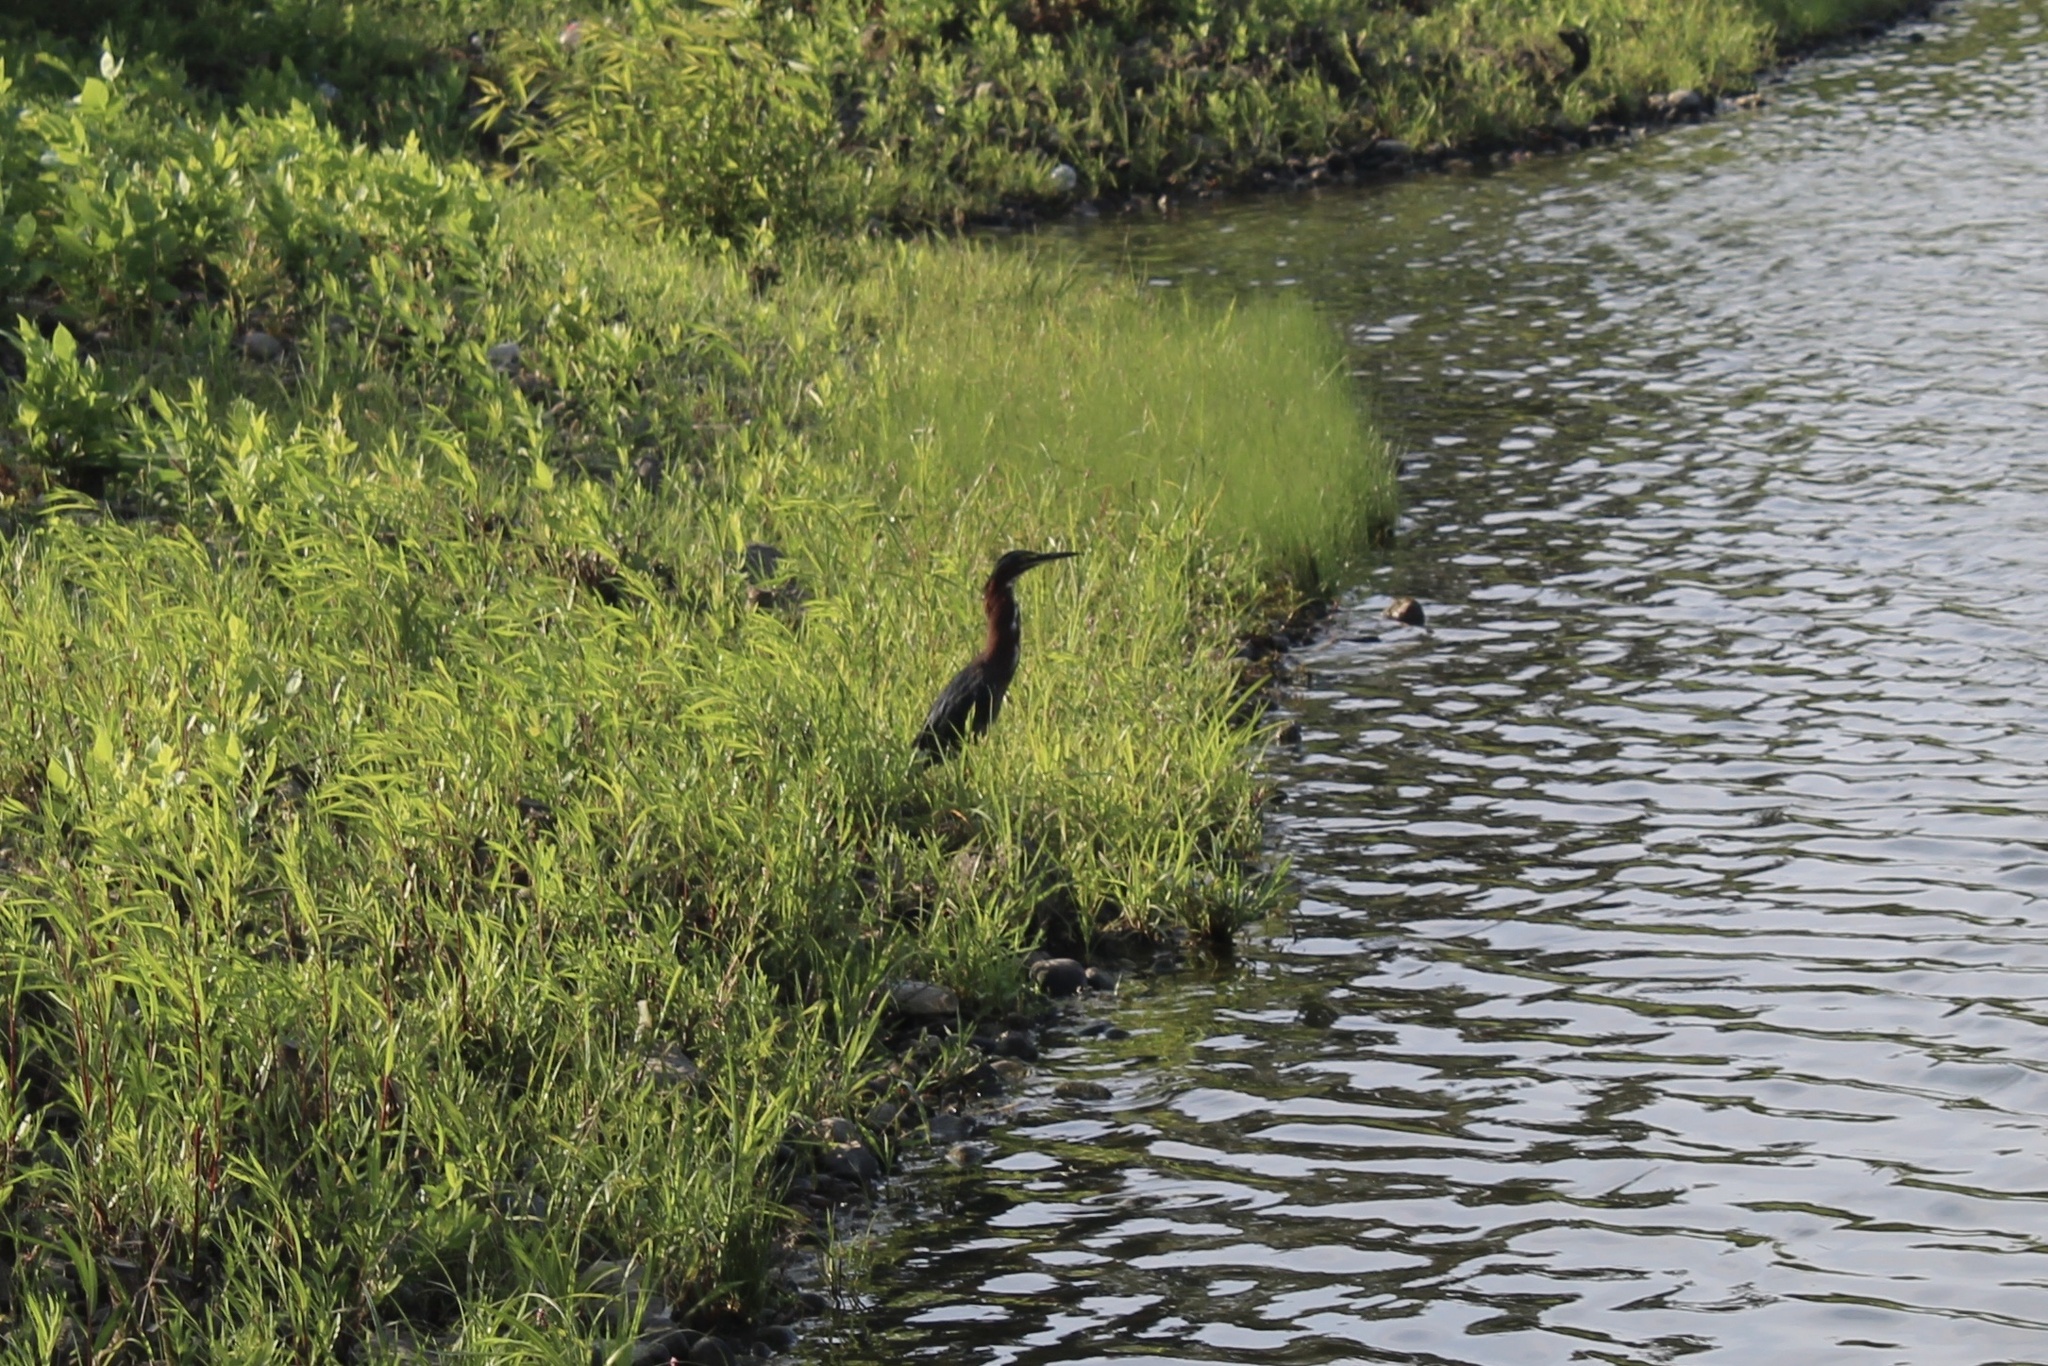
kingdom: Animalia
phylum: Chordata
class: Aves
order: Pelecaniformes
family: Ardeidae
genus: Butorides
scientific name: Butorides virescens
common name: Green heron
